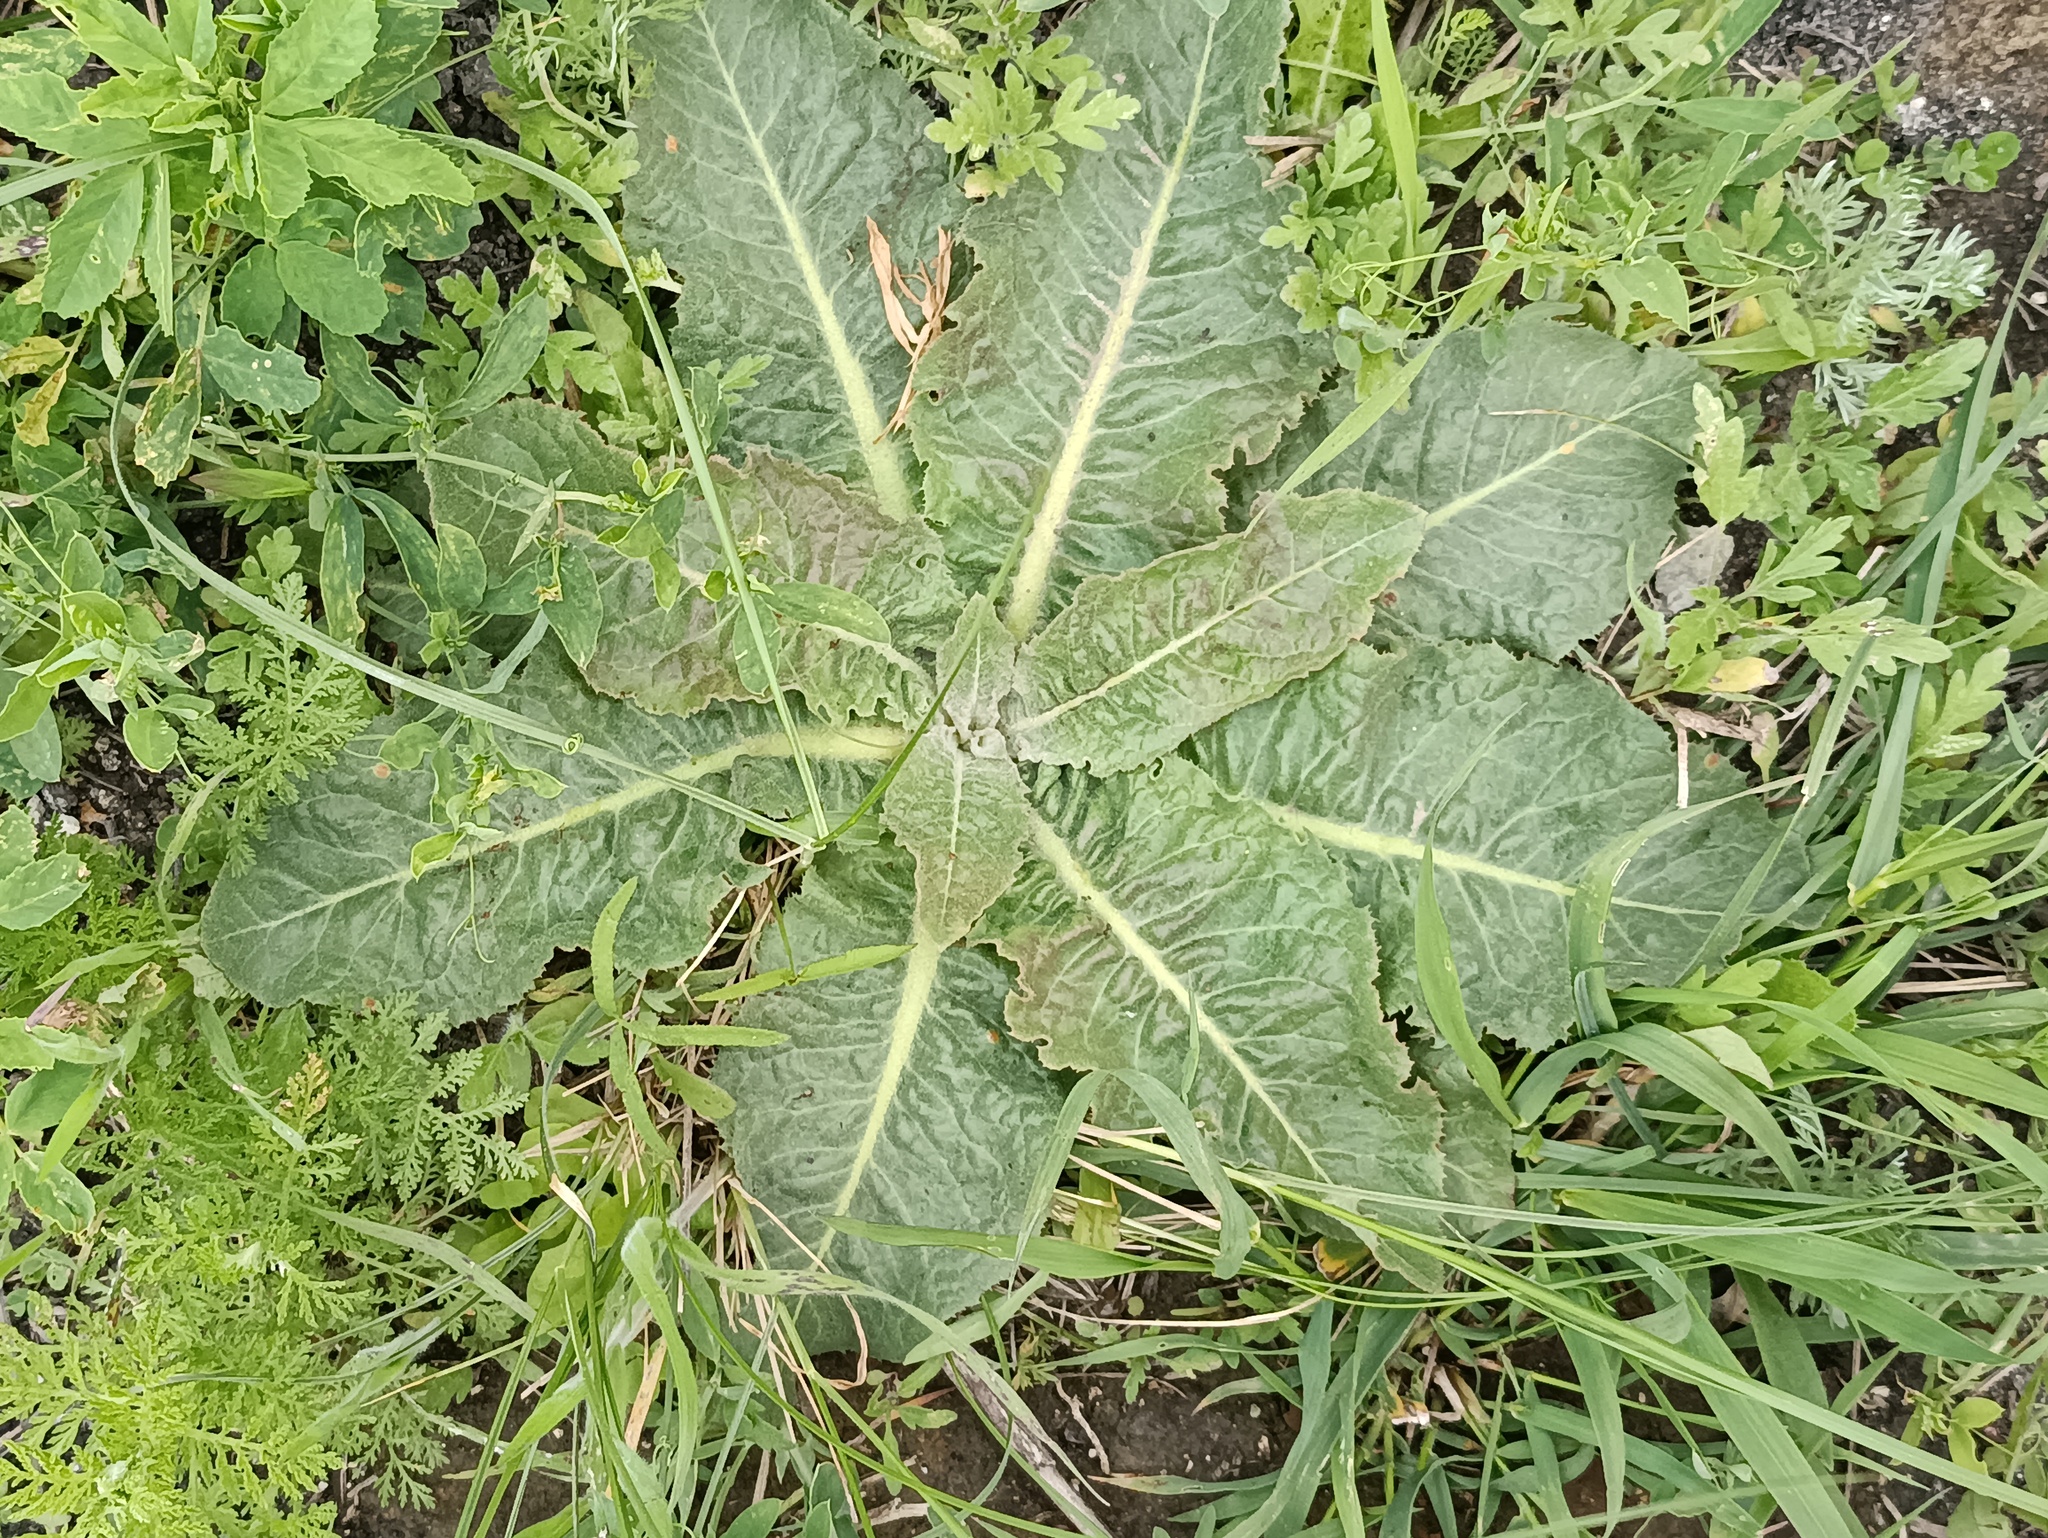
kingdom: Plantae
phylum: Tracheophyta
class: Magnoliopsida
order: Lamiales
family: Scrophulariaceae
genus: Verbascum
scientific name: Verbascum lychnitis
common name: White mullein
